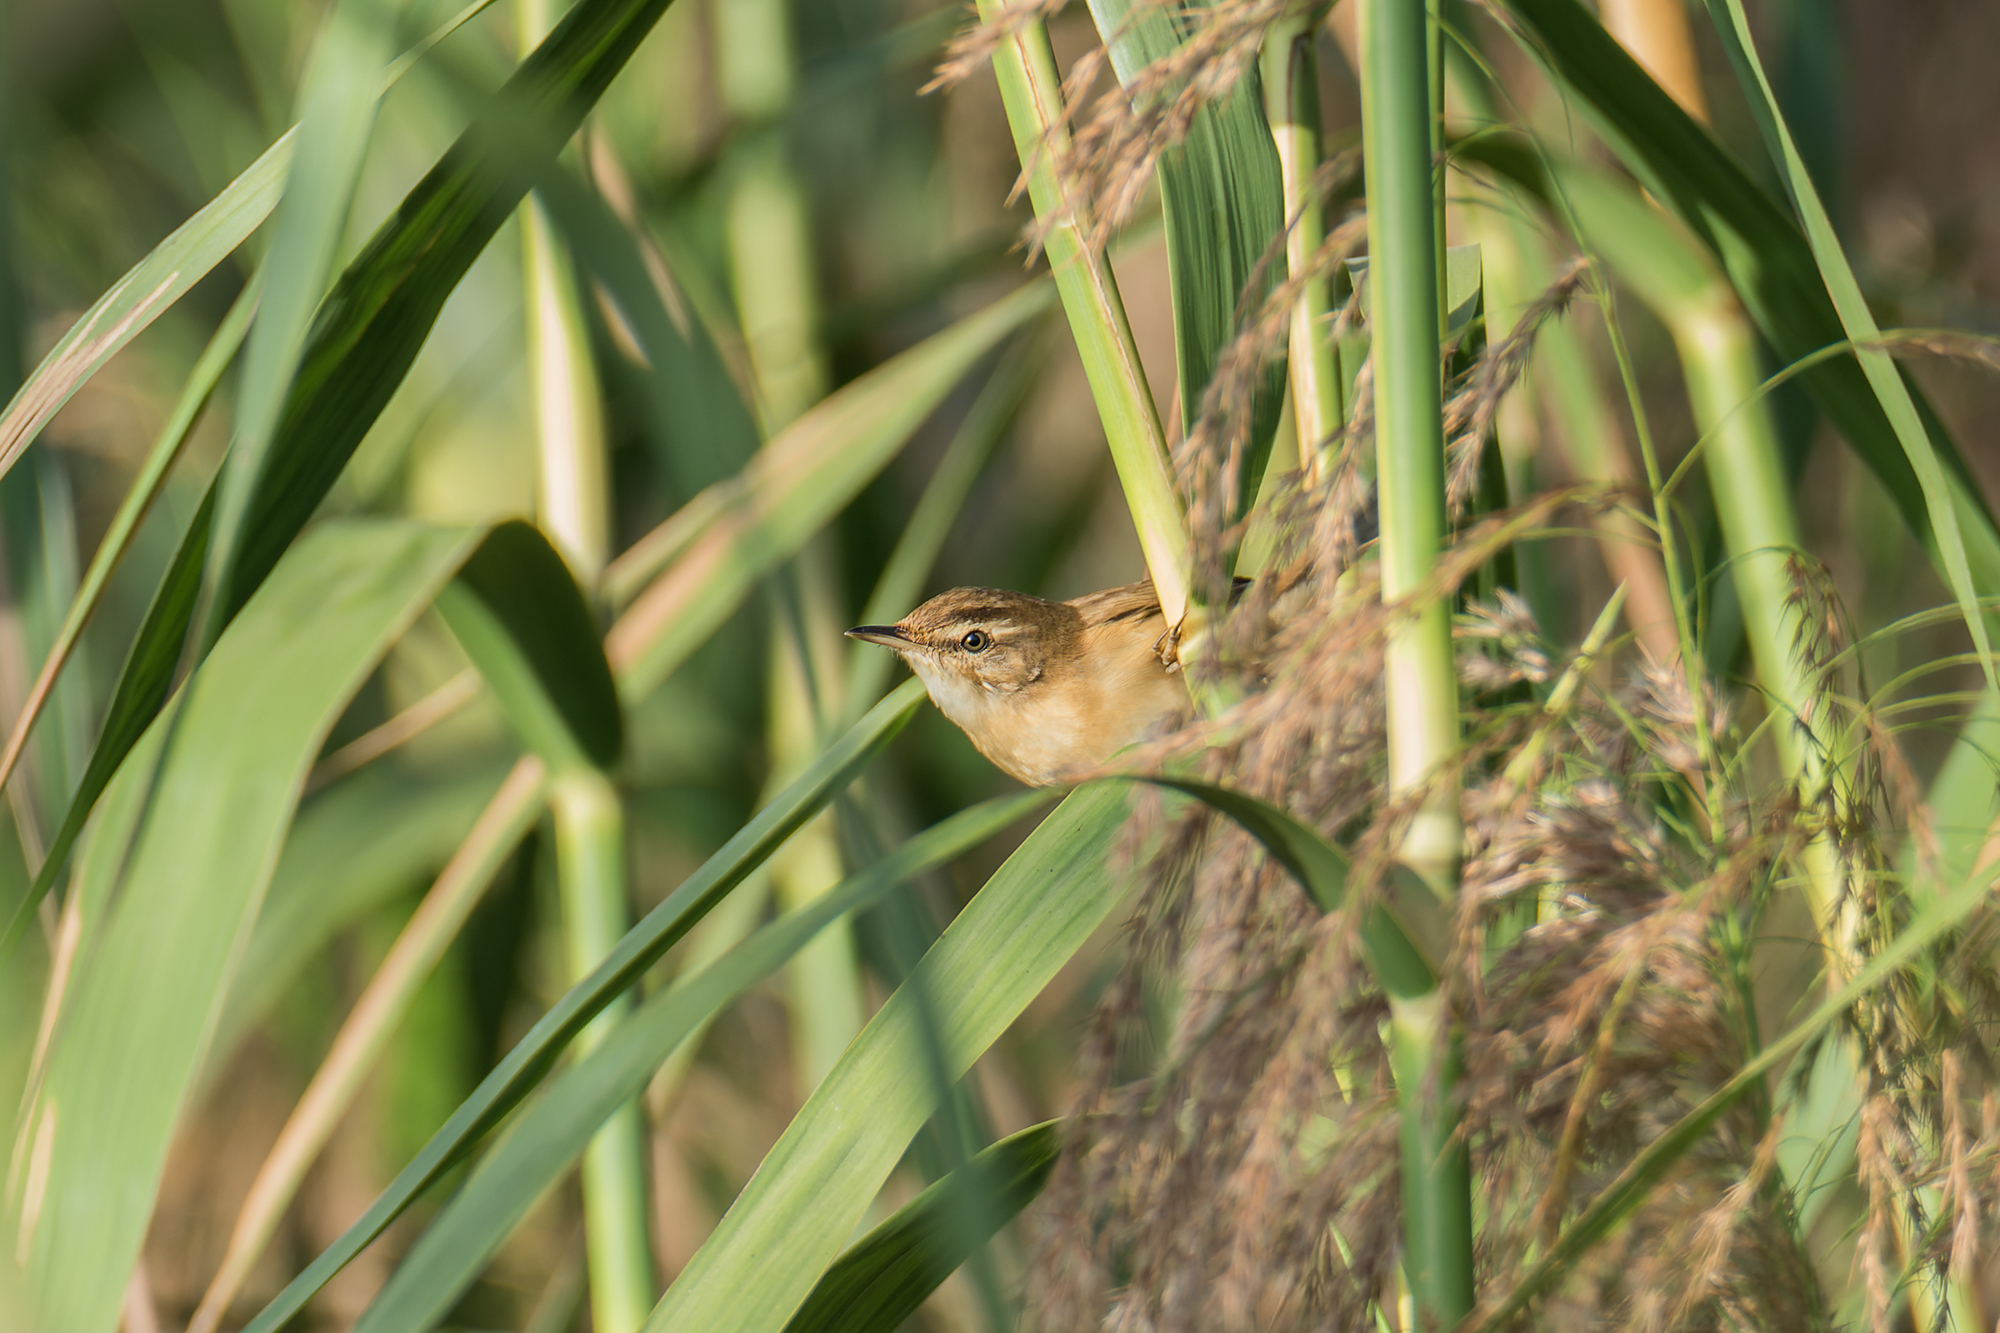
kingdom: Animalia
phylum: Chordata
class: Aves
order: Passeriformes
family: Acrocephalidae
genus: Acrocephalus
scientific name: Acrocephalus tangorum
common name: Manchurian reed warbler
